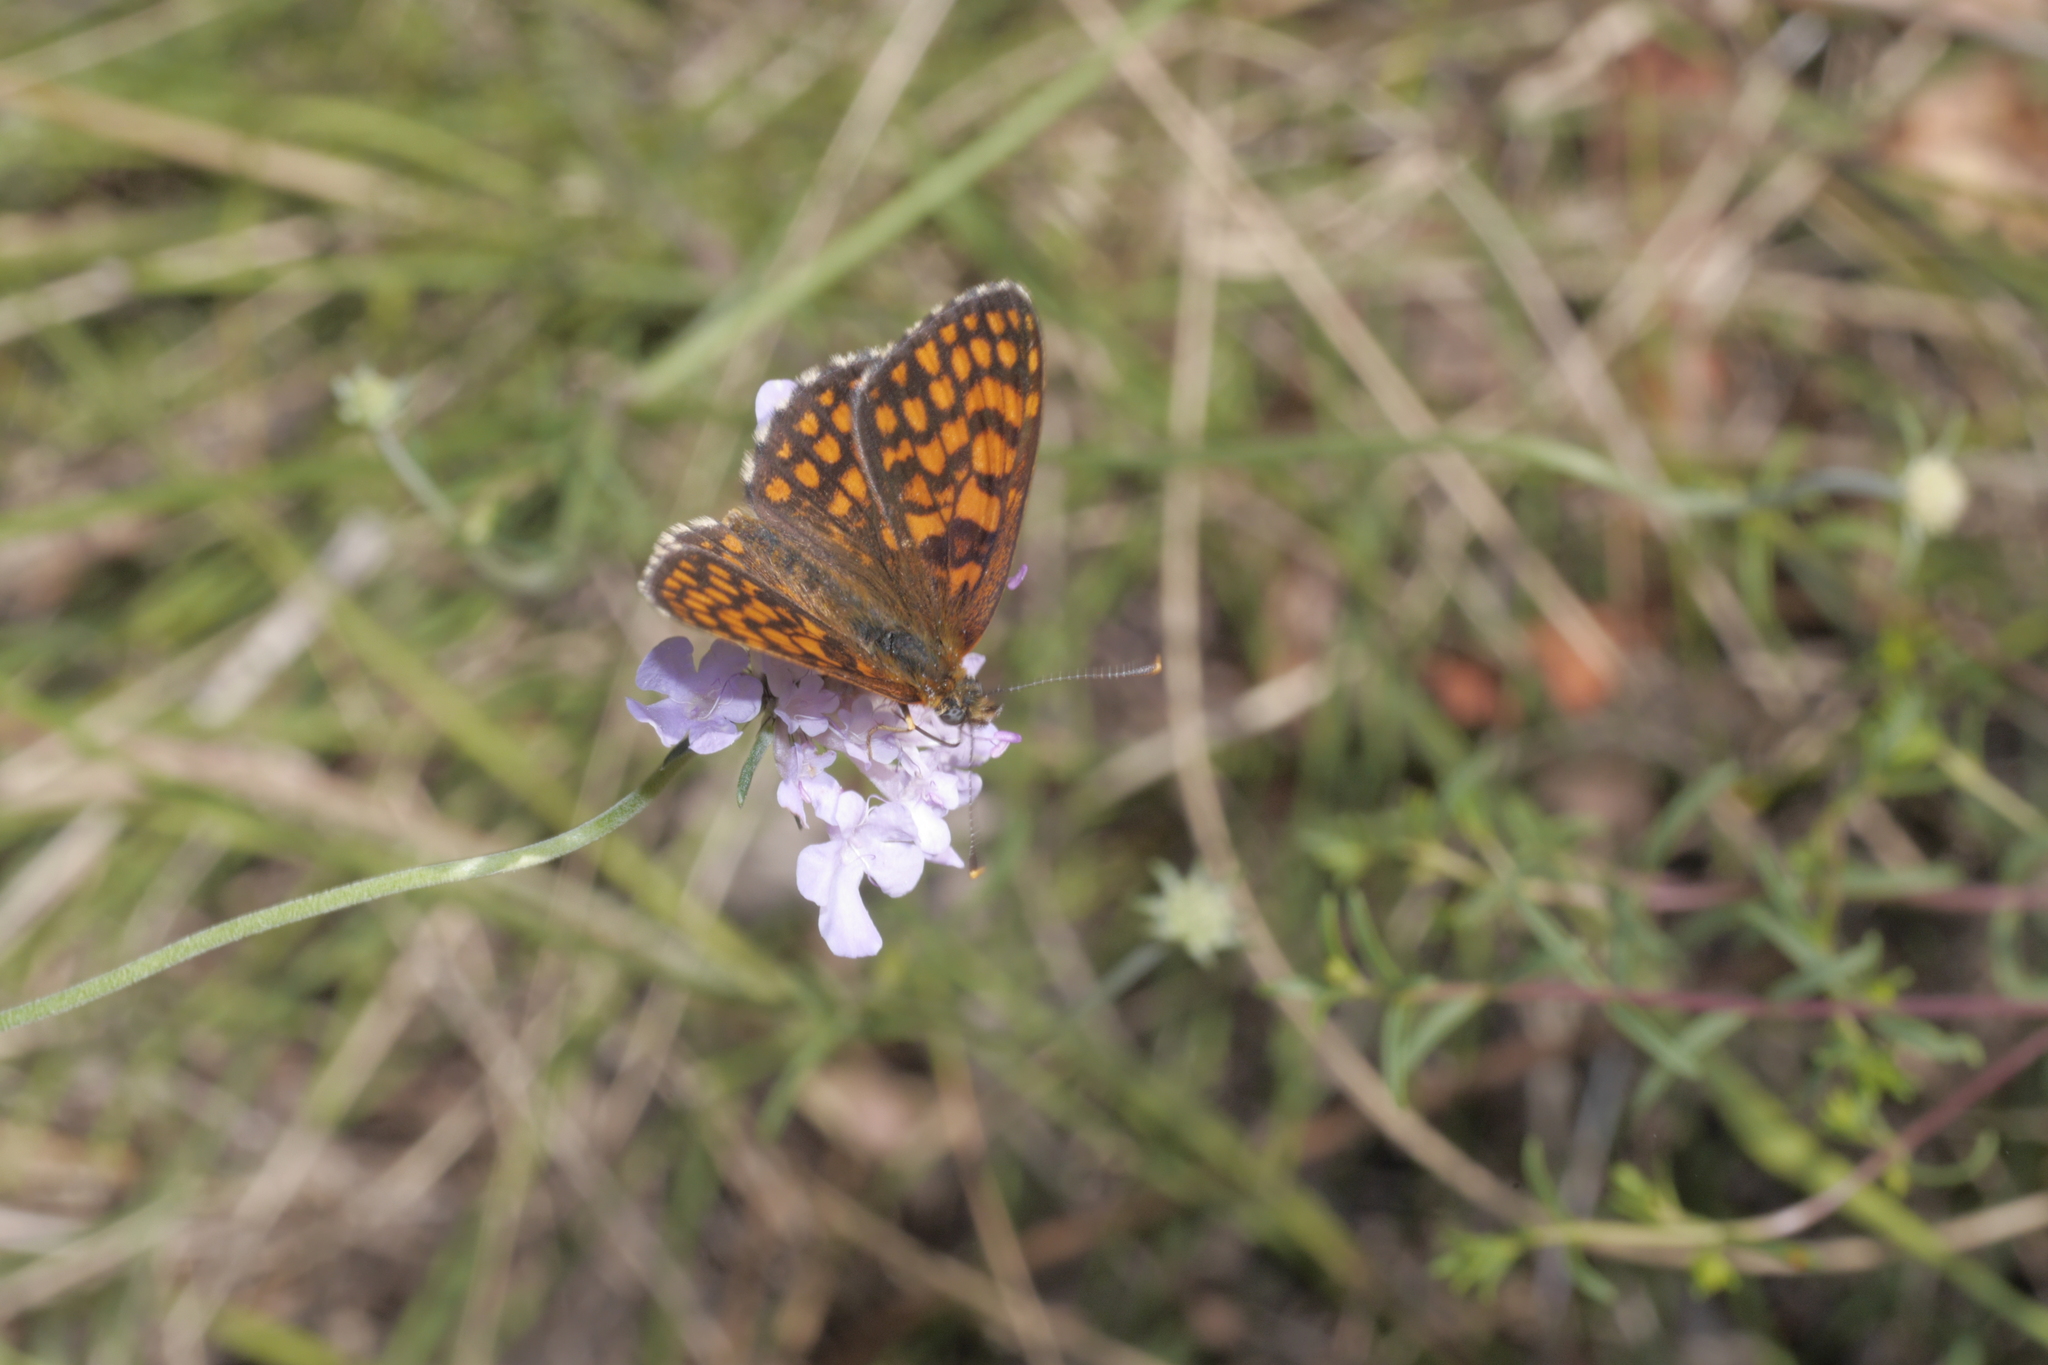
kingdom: Animalia
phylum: Arthropoda
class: Insecta
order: Lepidoptera
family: Nymphalidae
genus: Mellicta
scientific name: Mellicta athalia
